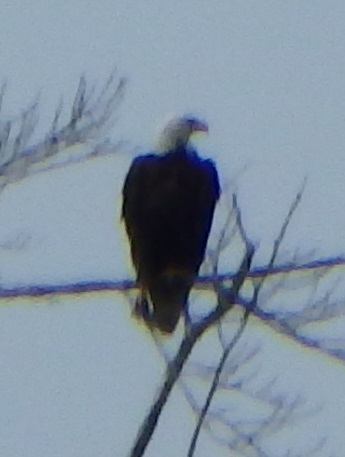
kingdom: Animalia
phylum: Chordata
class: Aves
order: Accipitriformes
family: Accipitridae
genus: Haliaeetus
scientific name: Haliaeetus leucocephalus
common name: Bald eagle
